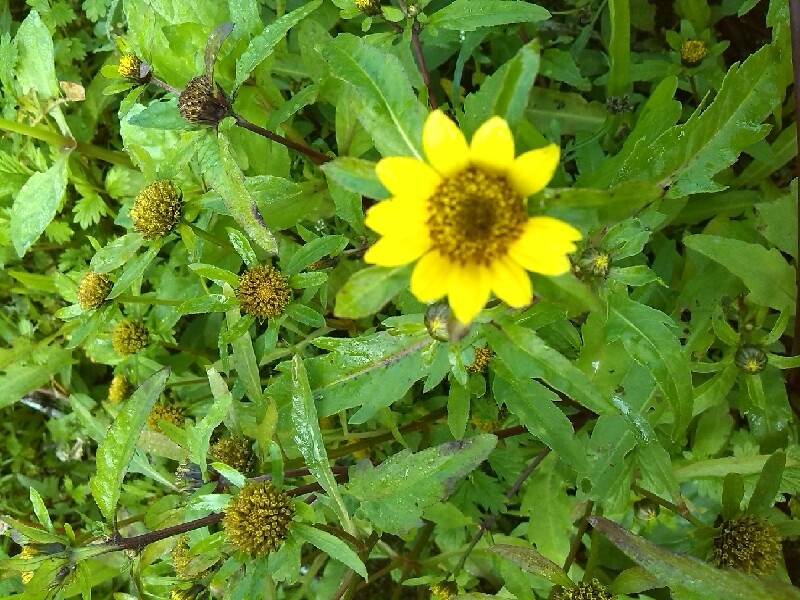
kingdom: Plantae
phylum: Tracheophyta
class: Magnoliopsida
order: Asterales
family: Asteraceae
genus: Bidens
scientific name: Bidens cernua
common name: Nodding bur-marigold
